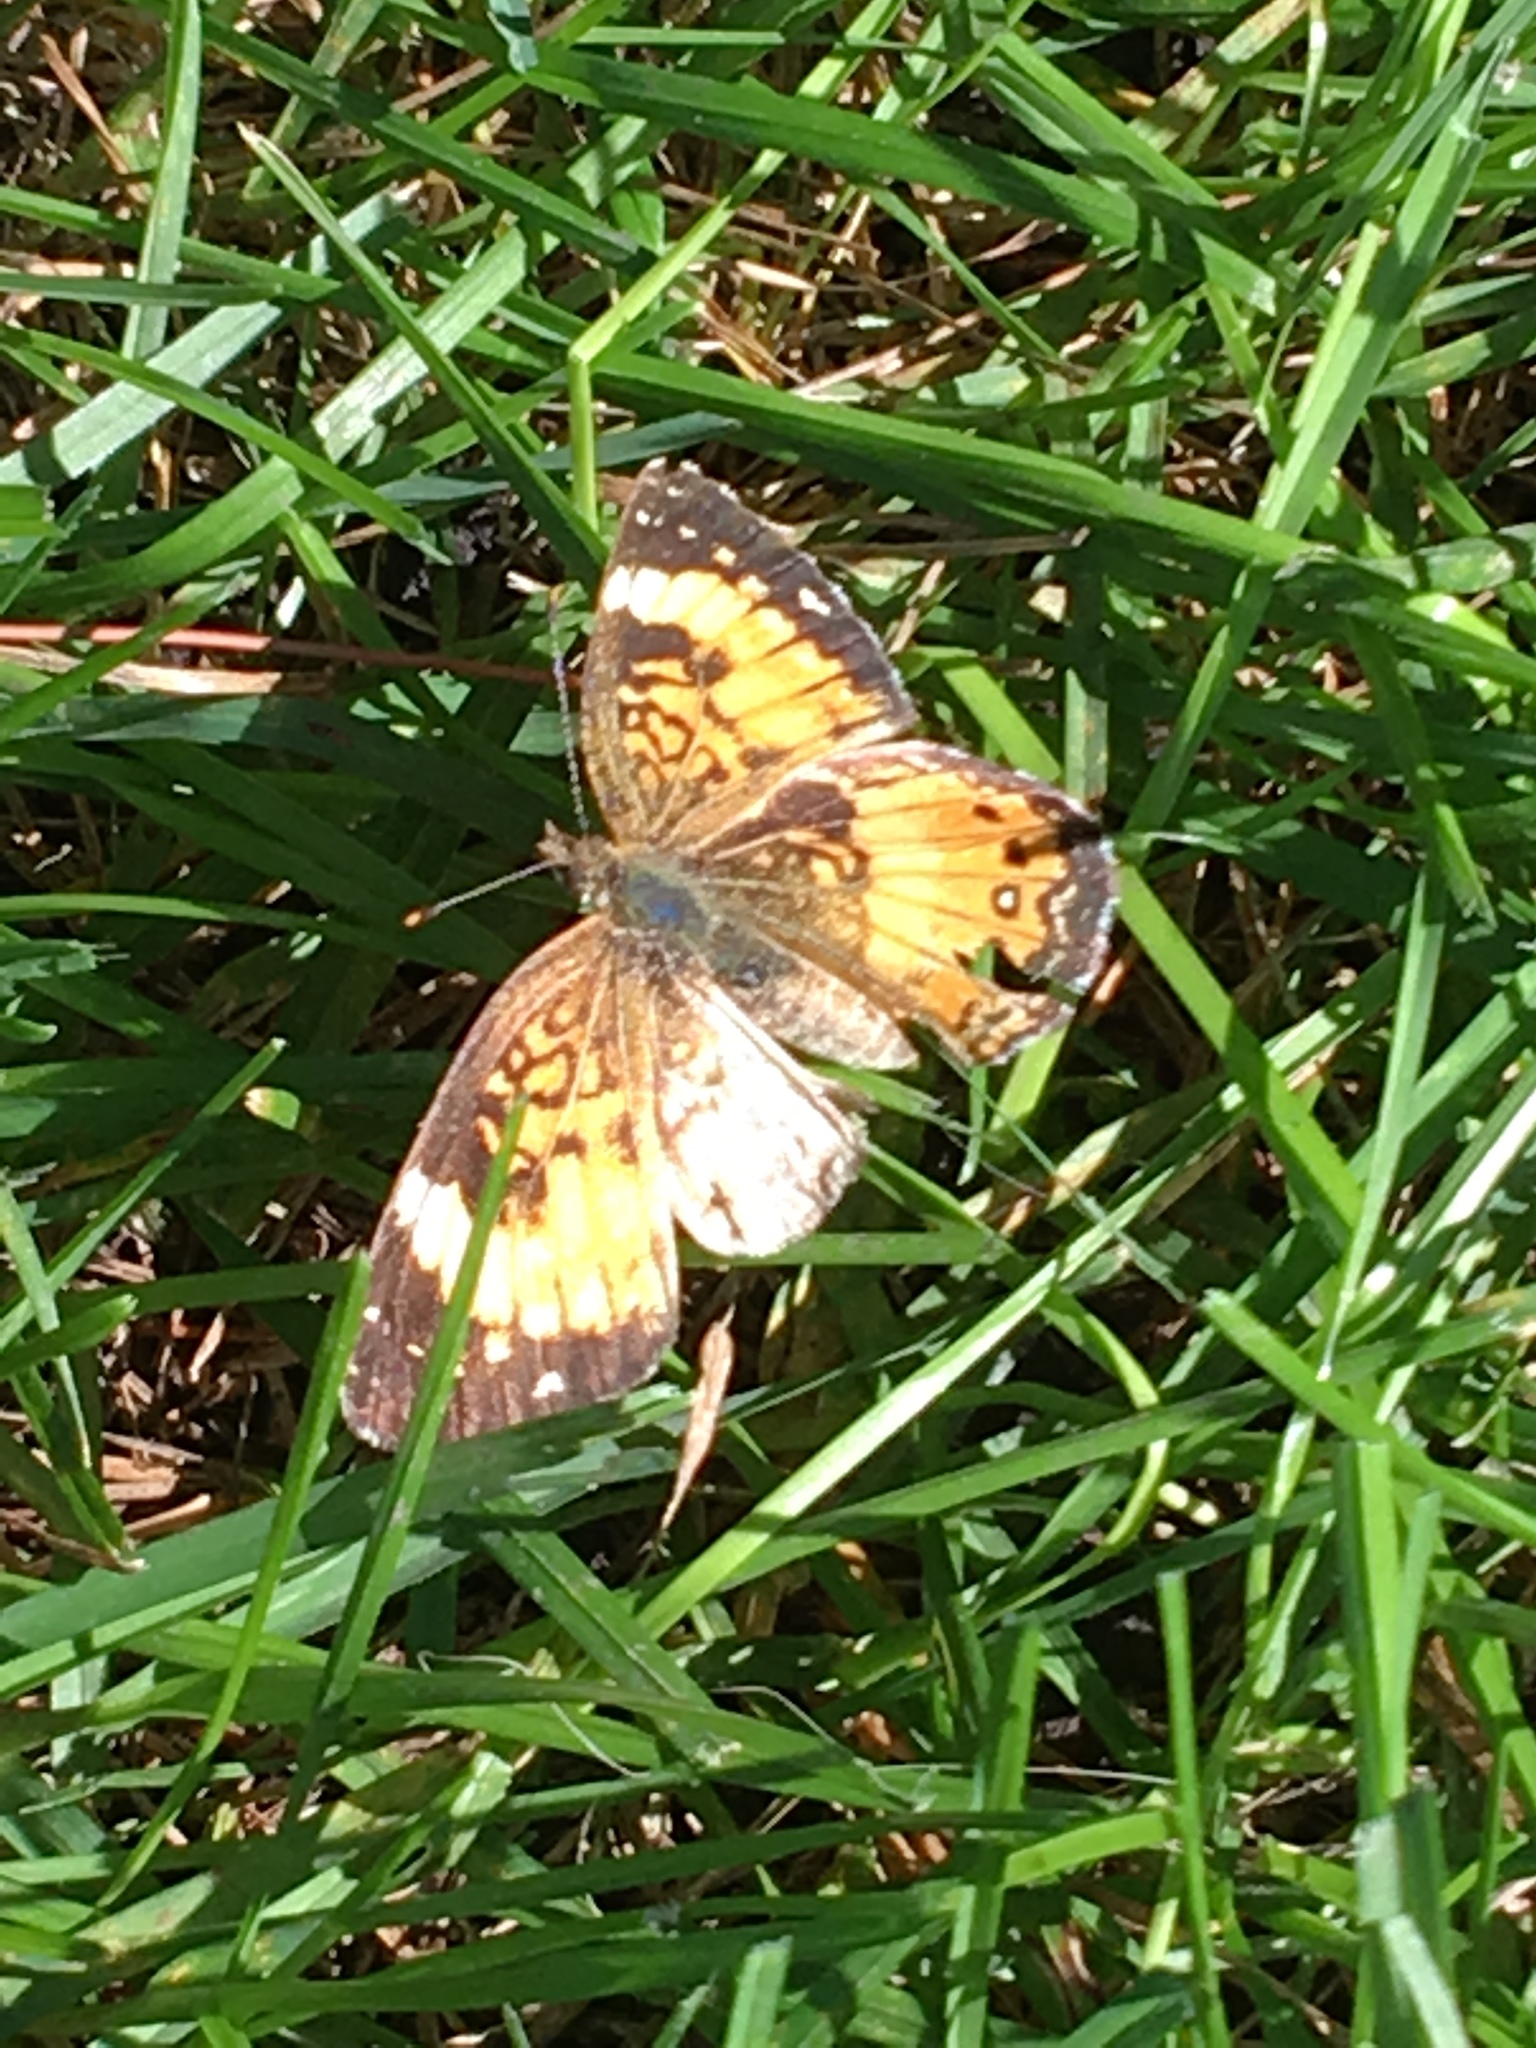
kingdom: Animalia
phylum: Arthropoda
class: Insecta
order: Lepidoptera
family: Nymphalidae
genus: Chlosyne
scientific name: Chlosyne nycteis
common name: Silvery checkerspot
